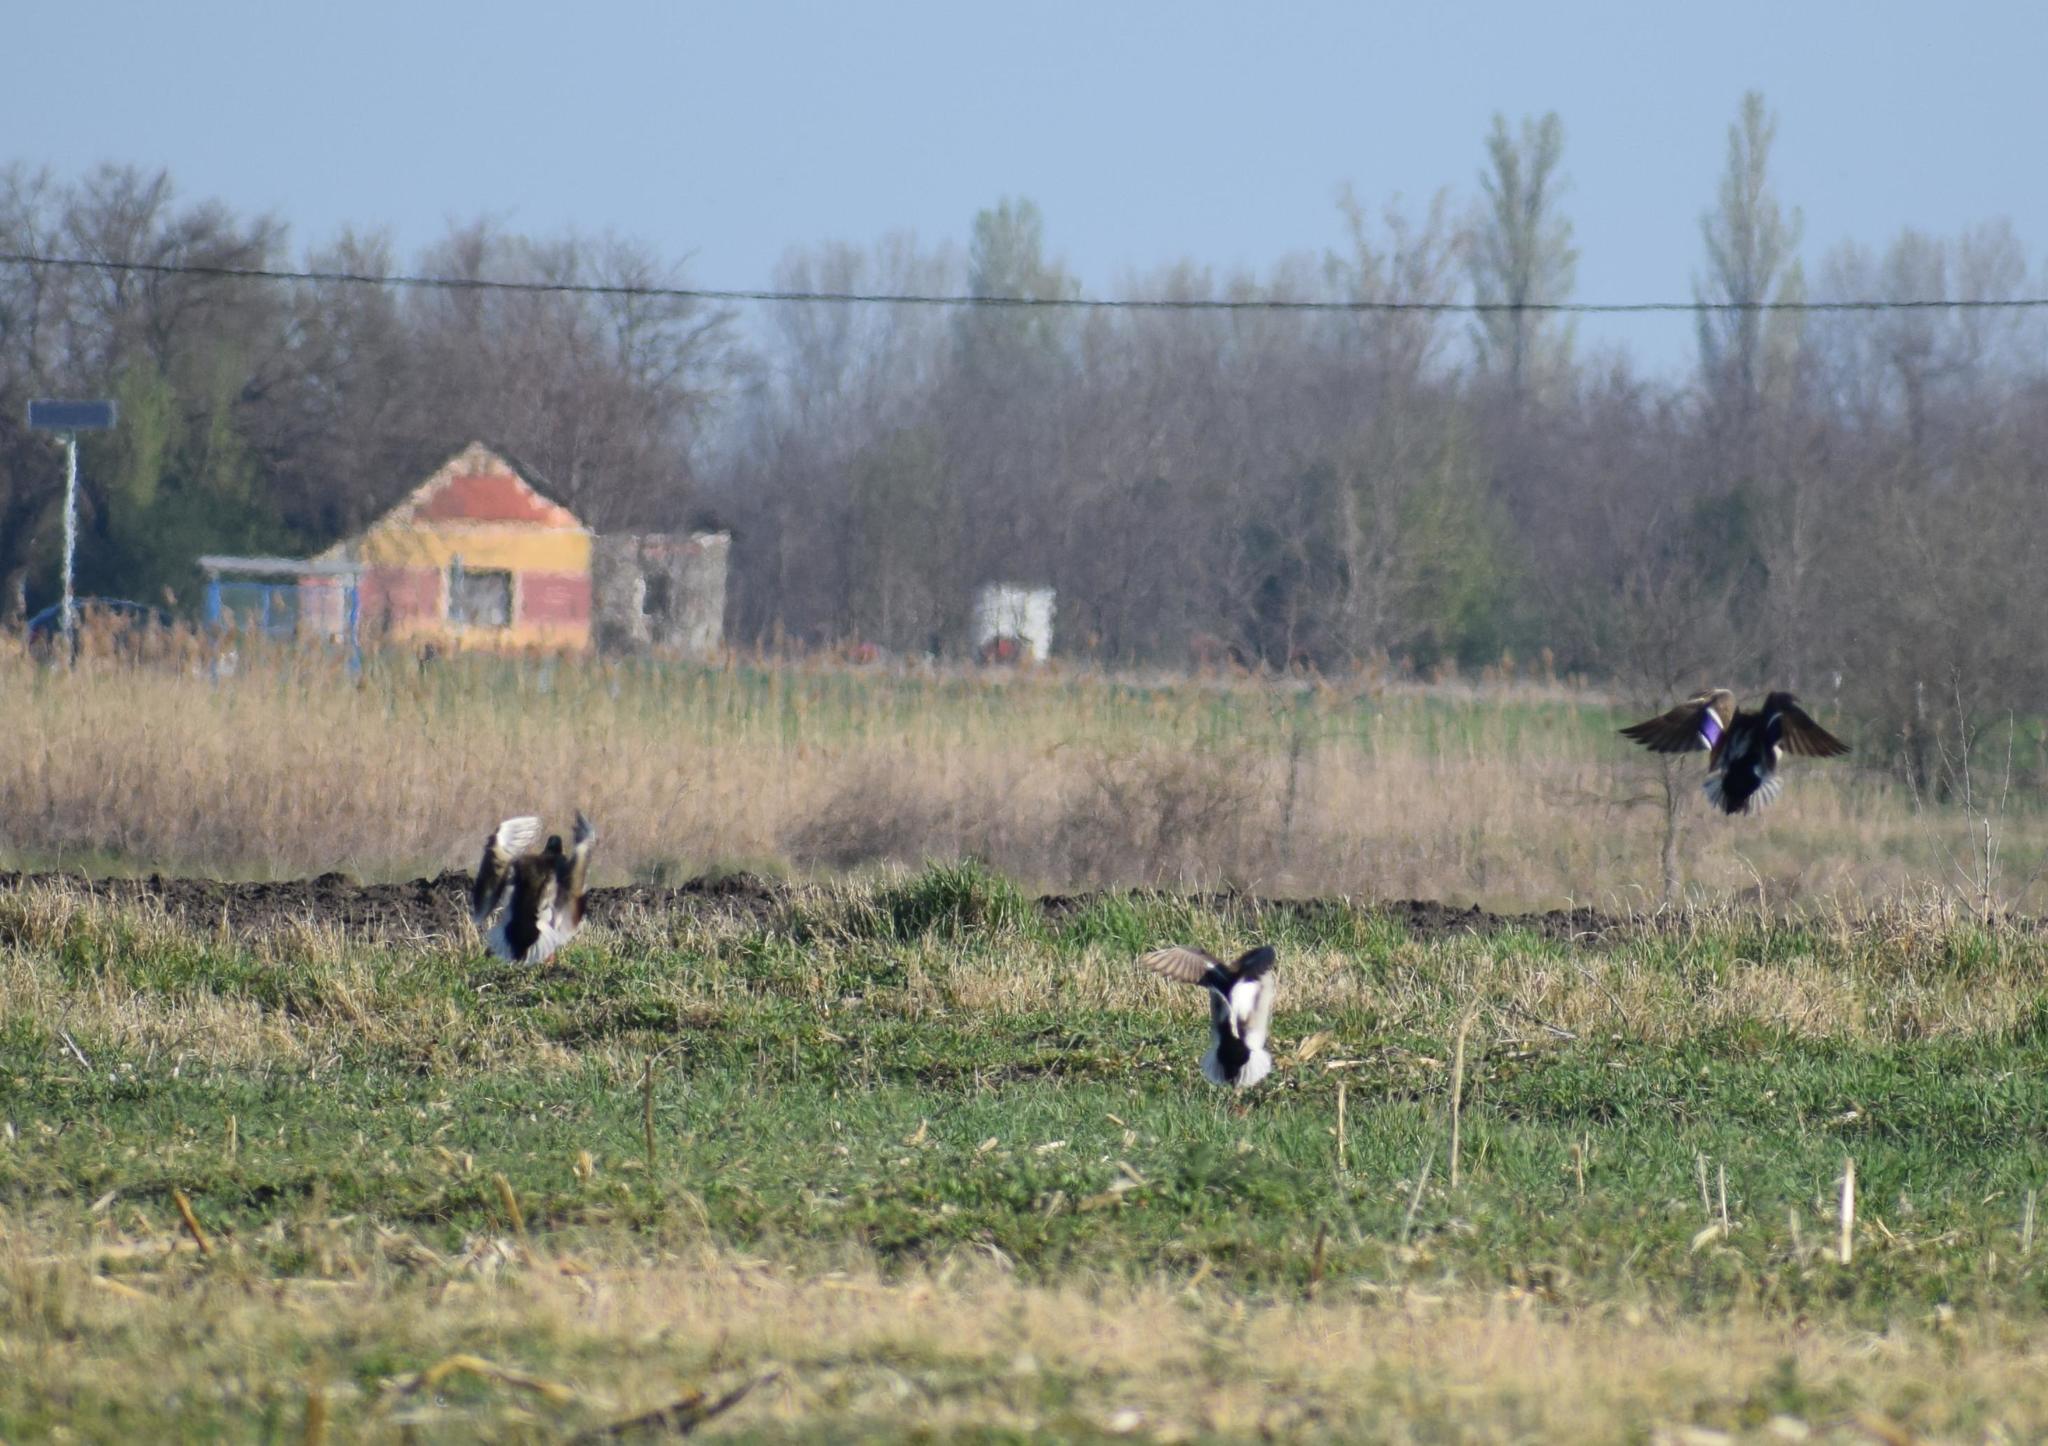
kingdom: Animalia
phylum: Chordata
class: Aves
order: Anseriformes
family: Anatidae
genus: Anas
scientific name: Anas platyrhynchos
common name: Mallard
